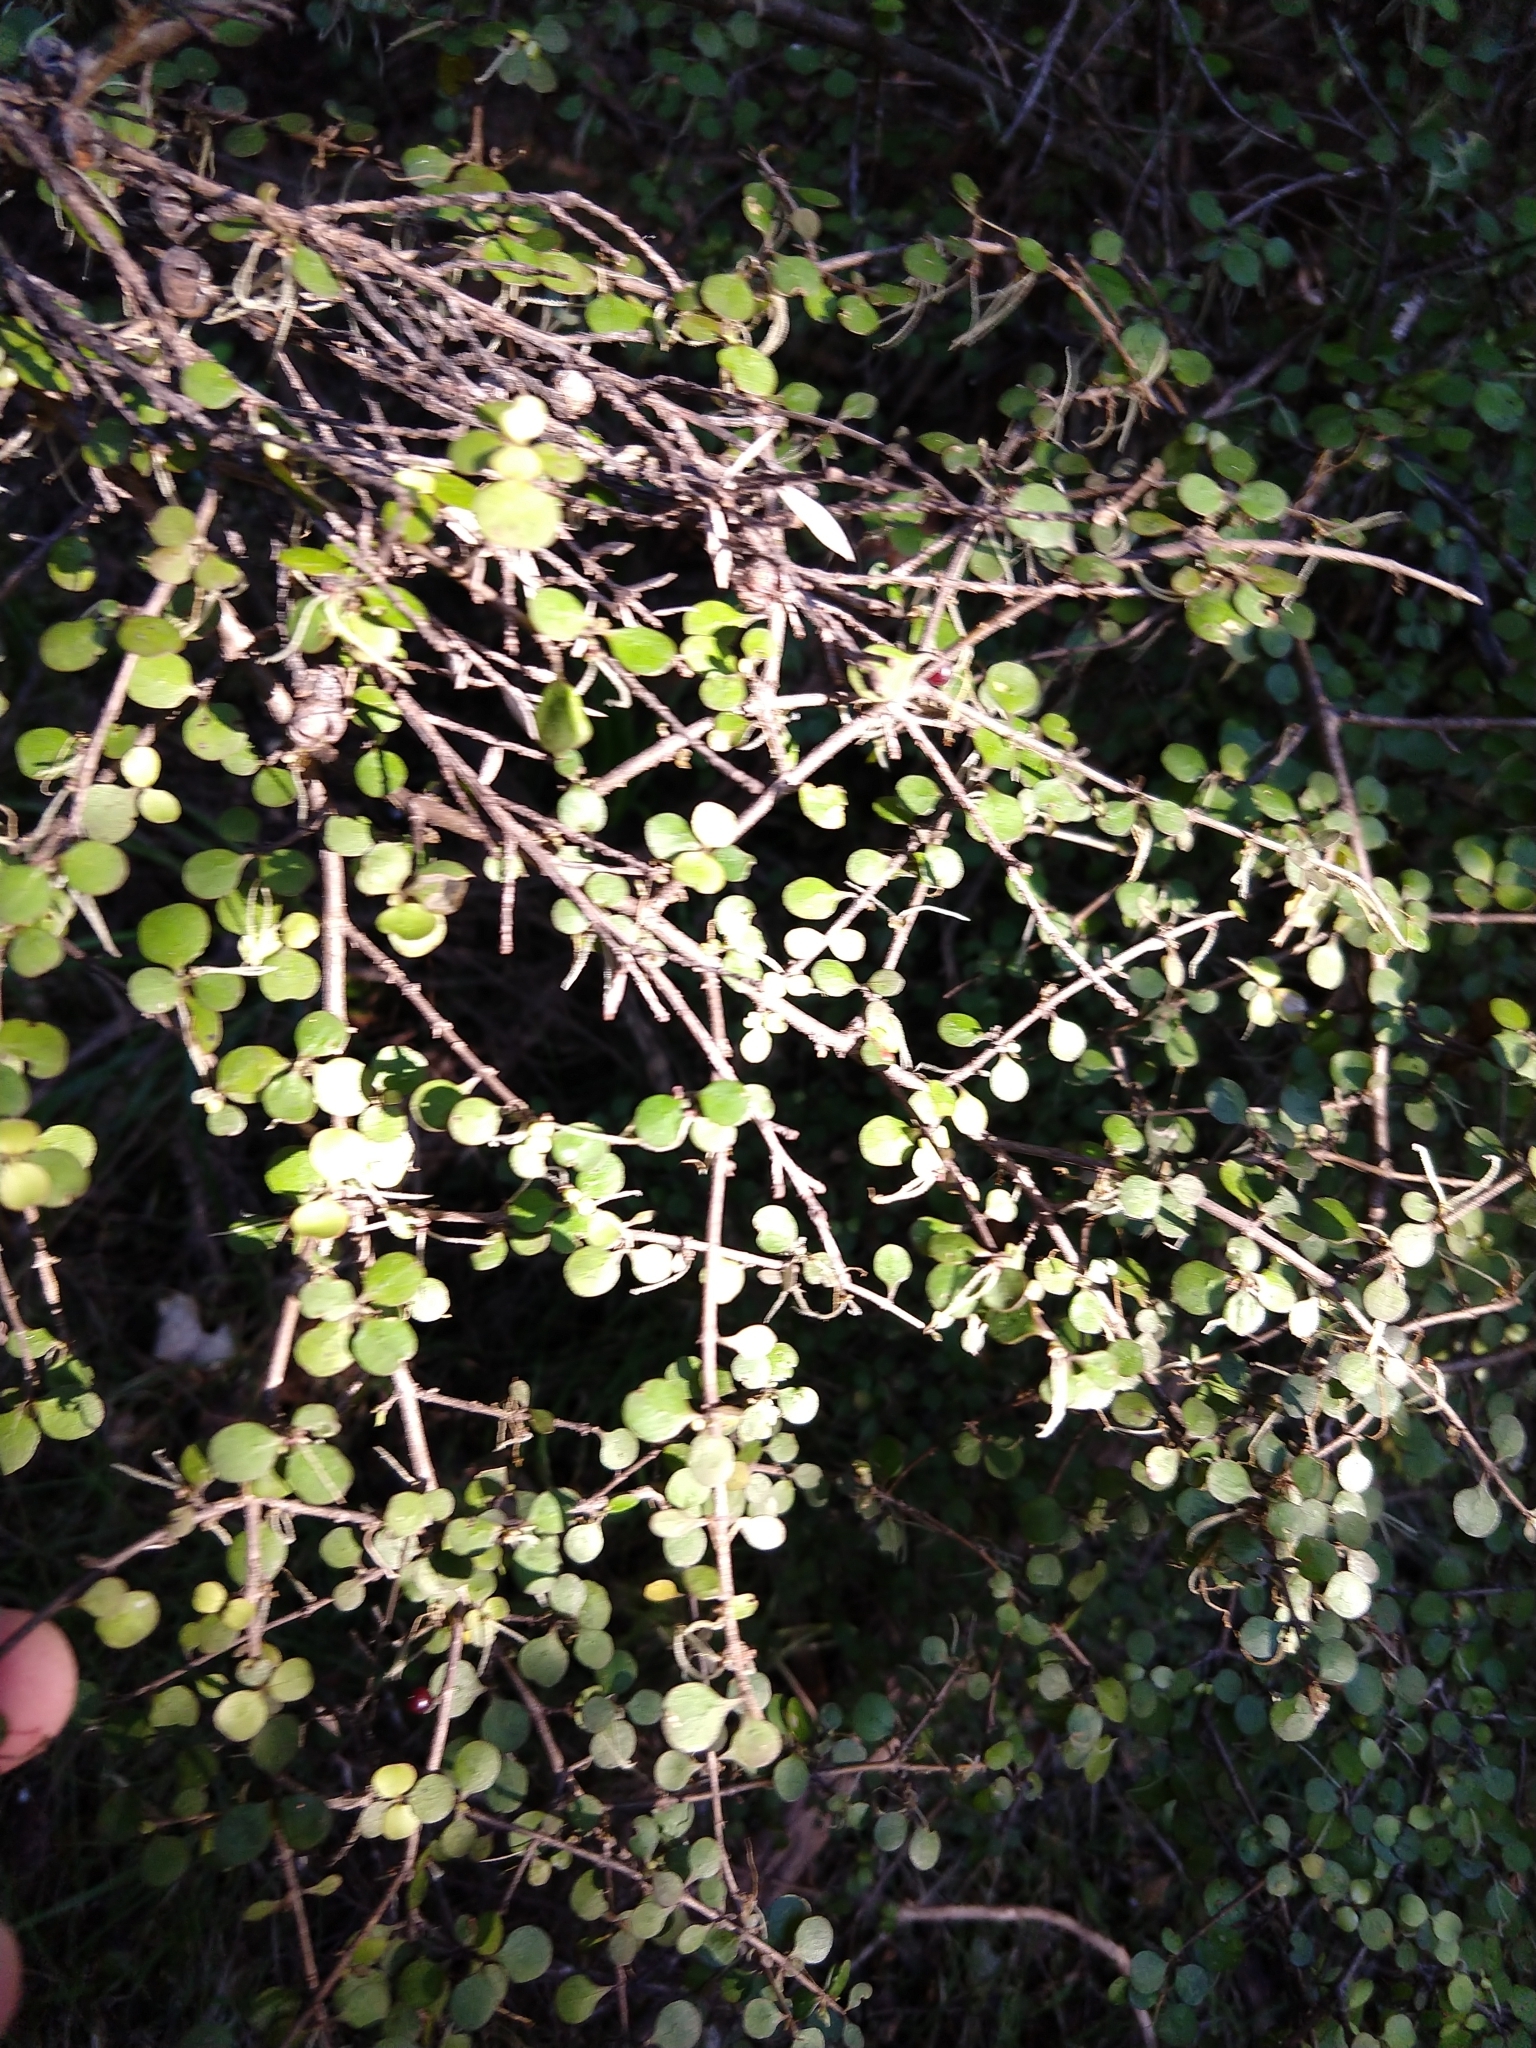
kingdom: Plantae
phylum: Tracheophyta
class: Magnoliopsida
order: Gentianales
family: Rubiaceae
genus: Coprosma
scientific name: Coprosma rhamnoides
